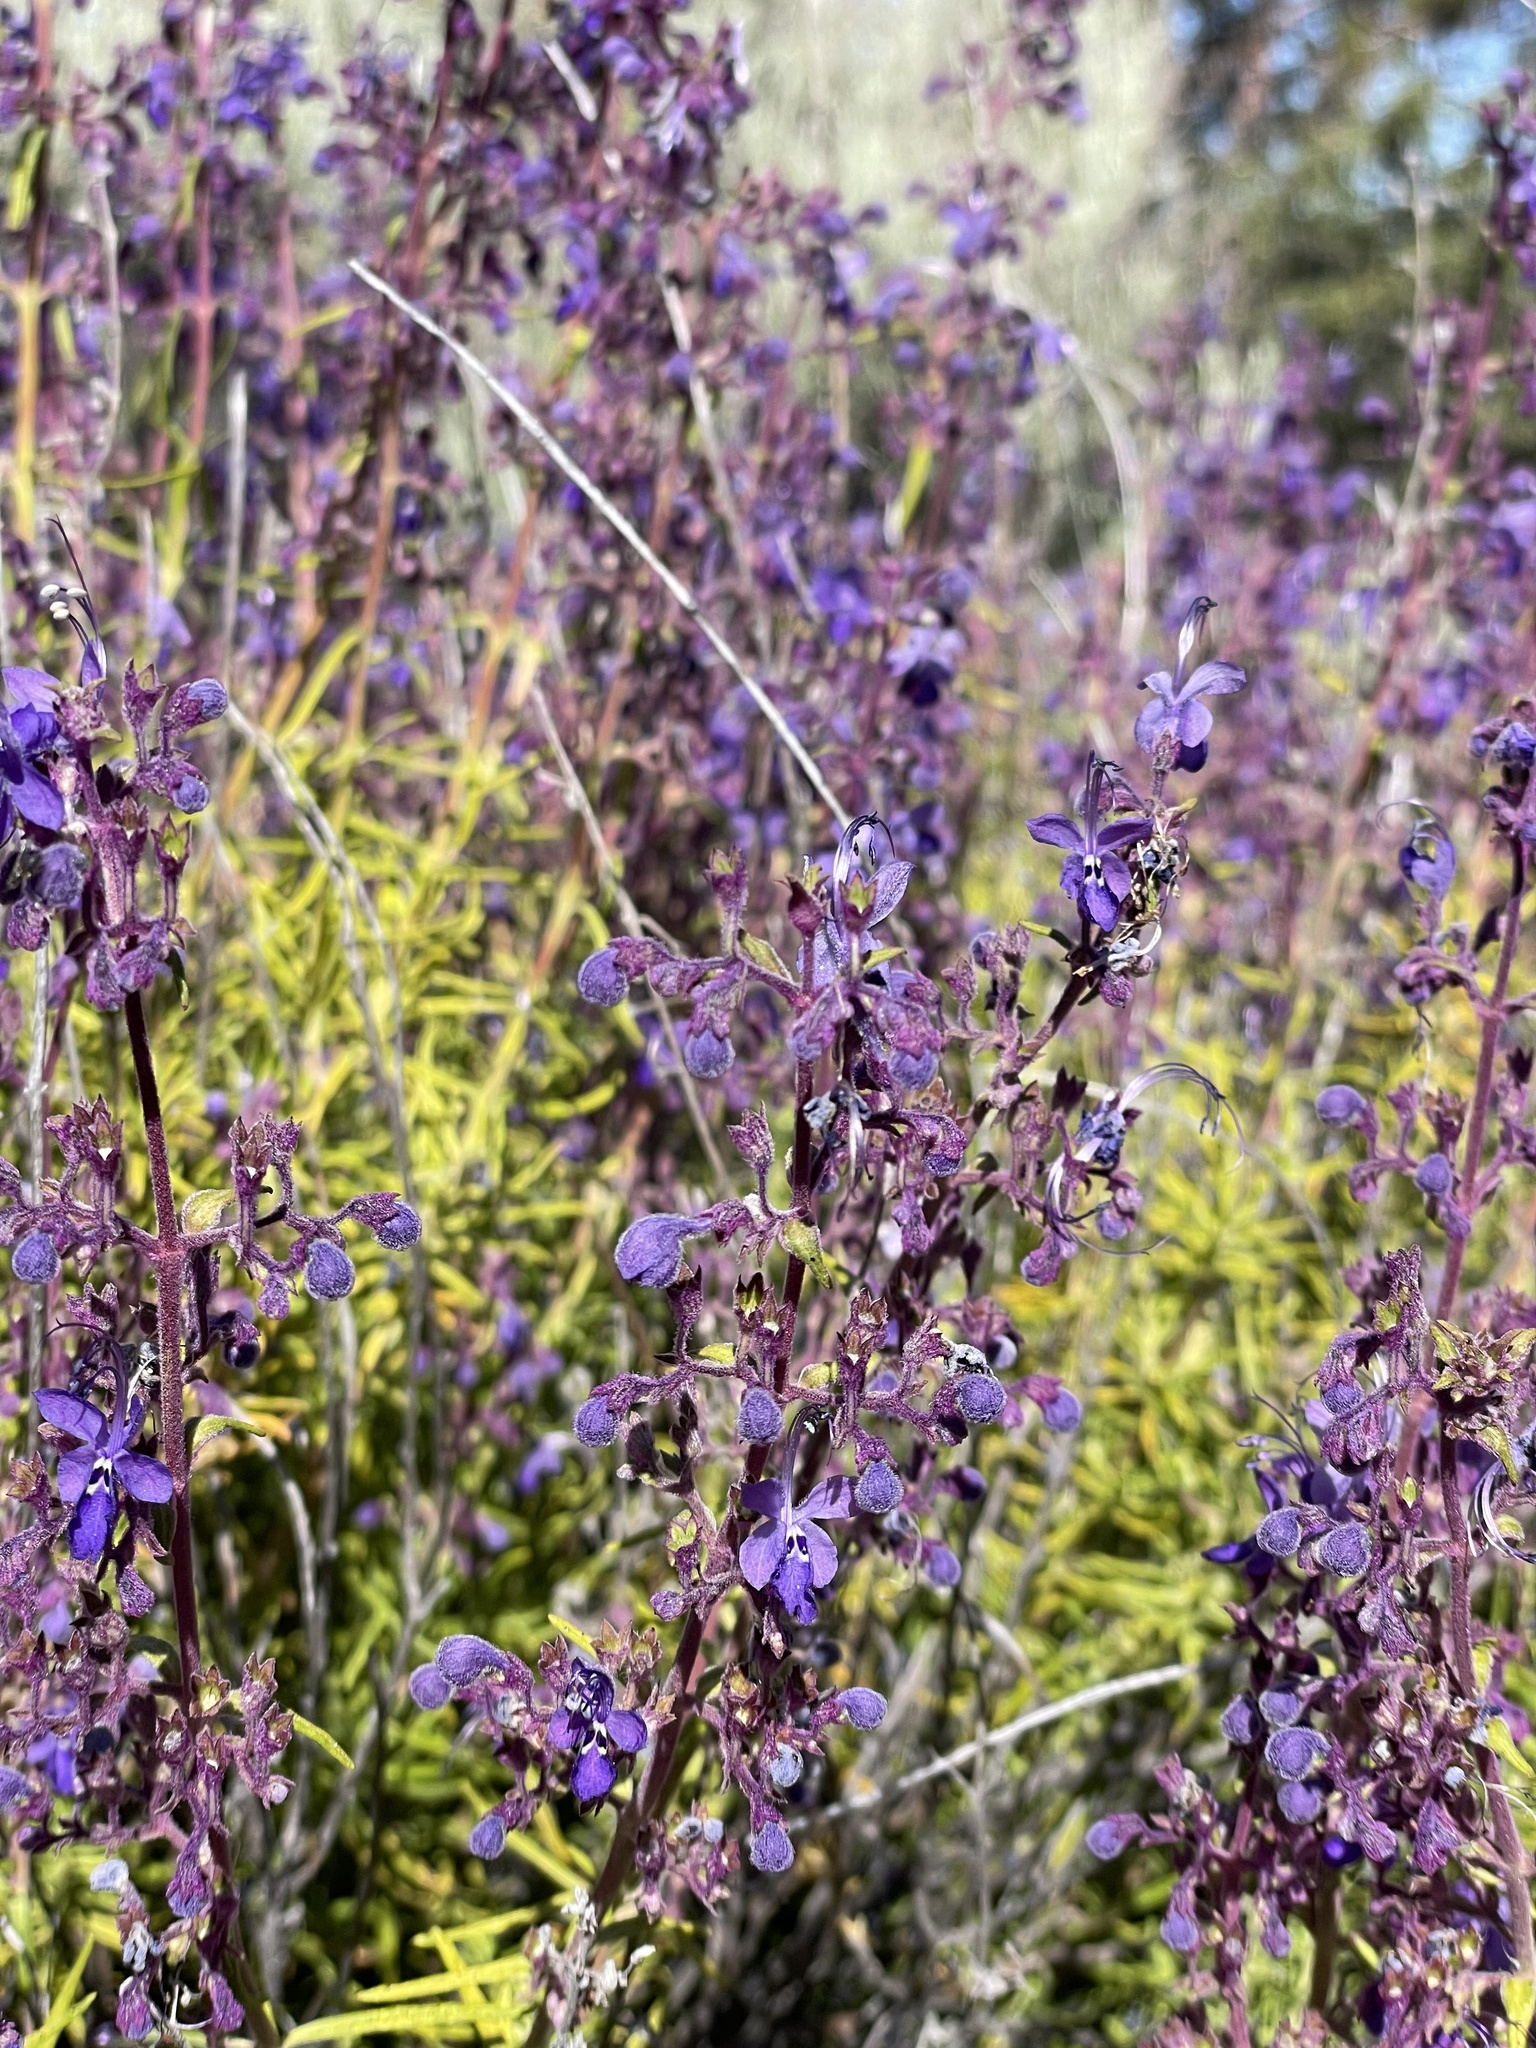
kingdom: Plantae
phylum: Tracheophyta
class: Magnoliopsida
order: Lamiales
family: Lamiaceae
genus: Trichostema
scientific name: Trichostema parishii
